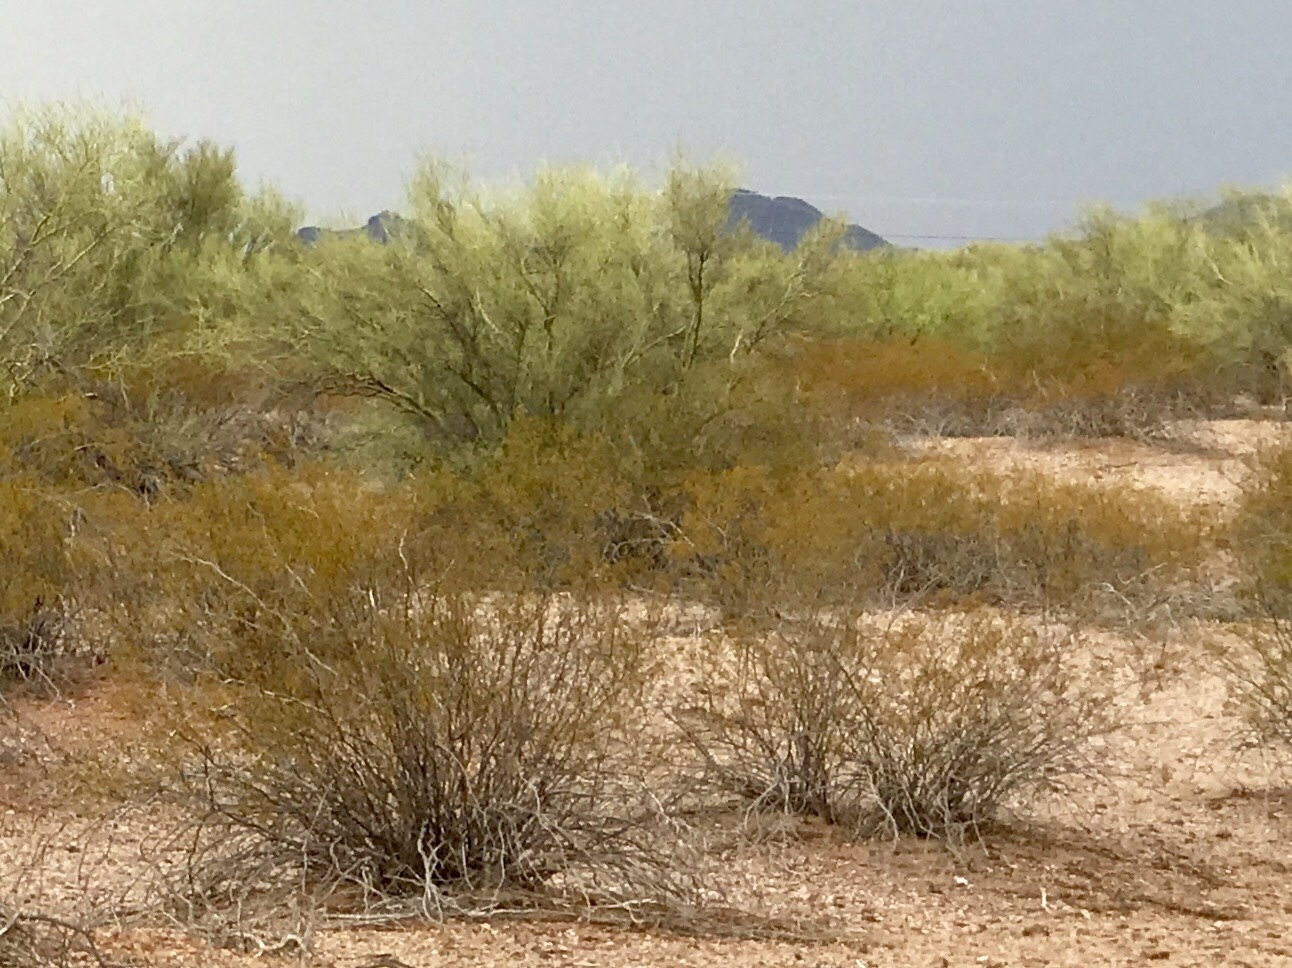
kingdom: Plantae
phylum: Tracheophyta
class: Magnoliopsida
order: Zygophyllales
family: Zygophyllaceae
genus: Larrea
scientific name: Larrea tridentata
